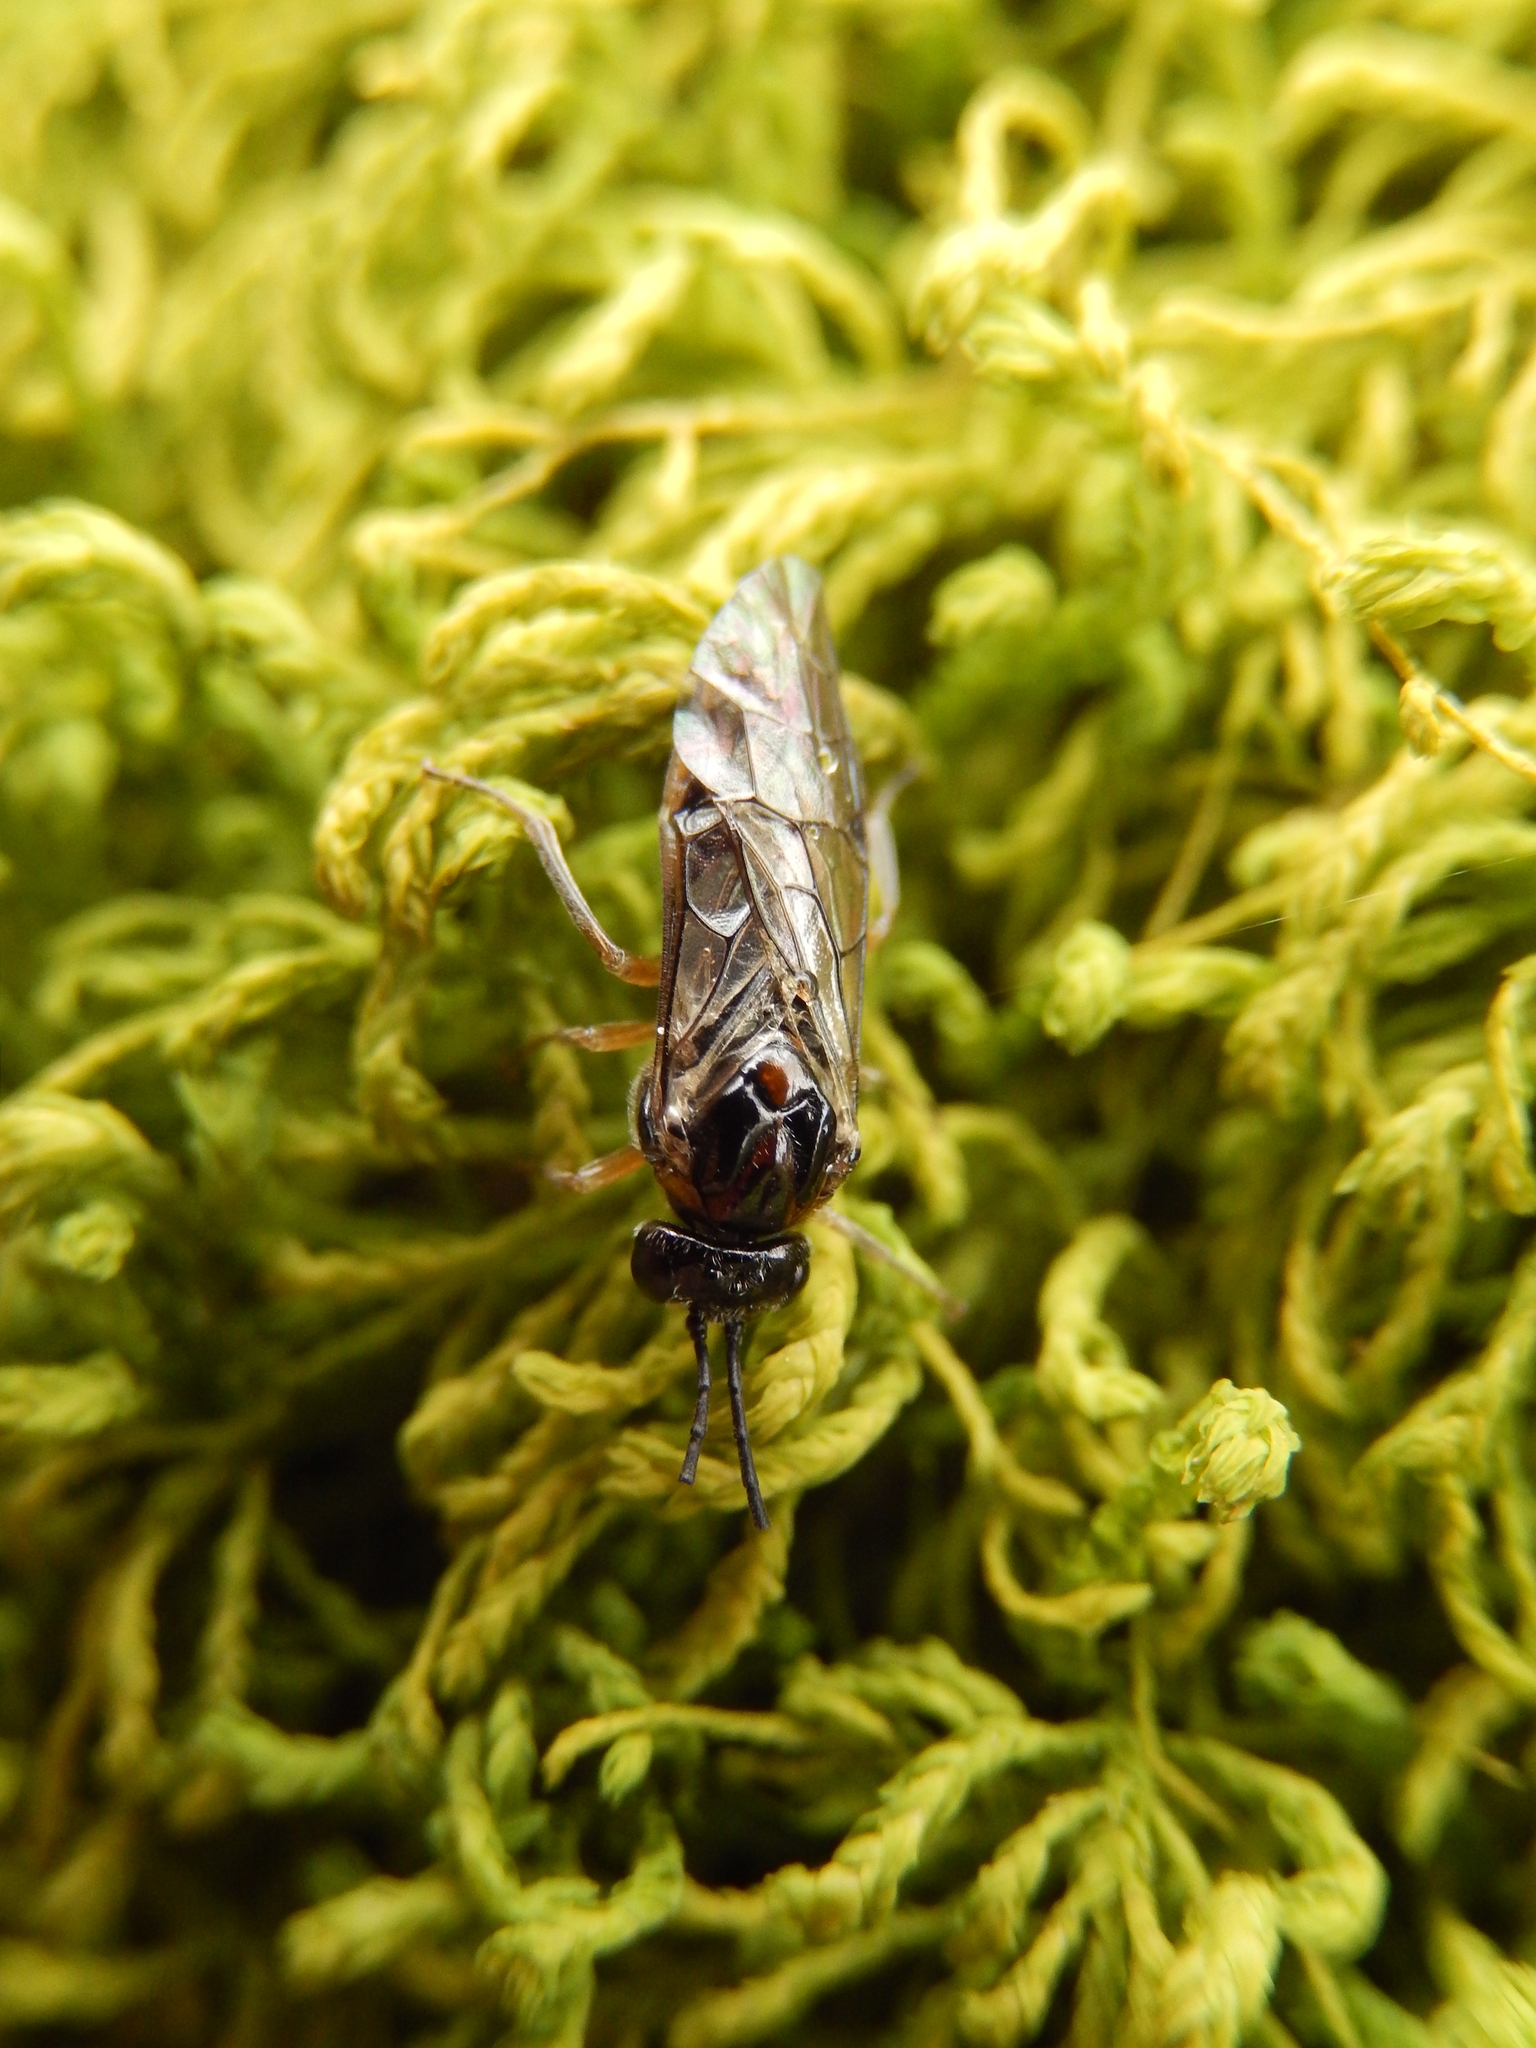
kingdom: Animalia
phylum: Arthropoda
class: Insecta
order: Hymenoptera
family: Tenthredinidae
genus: Mesoneura
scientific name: Mesoneura opaca
